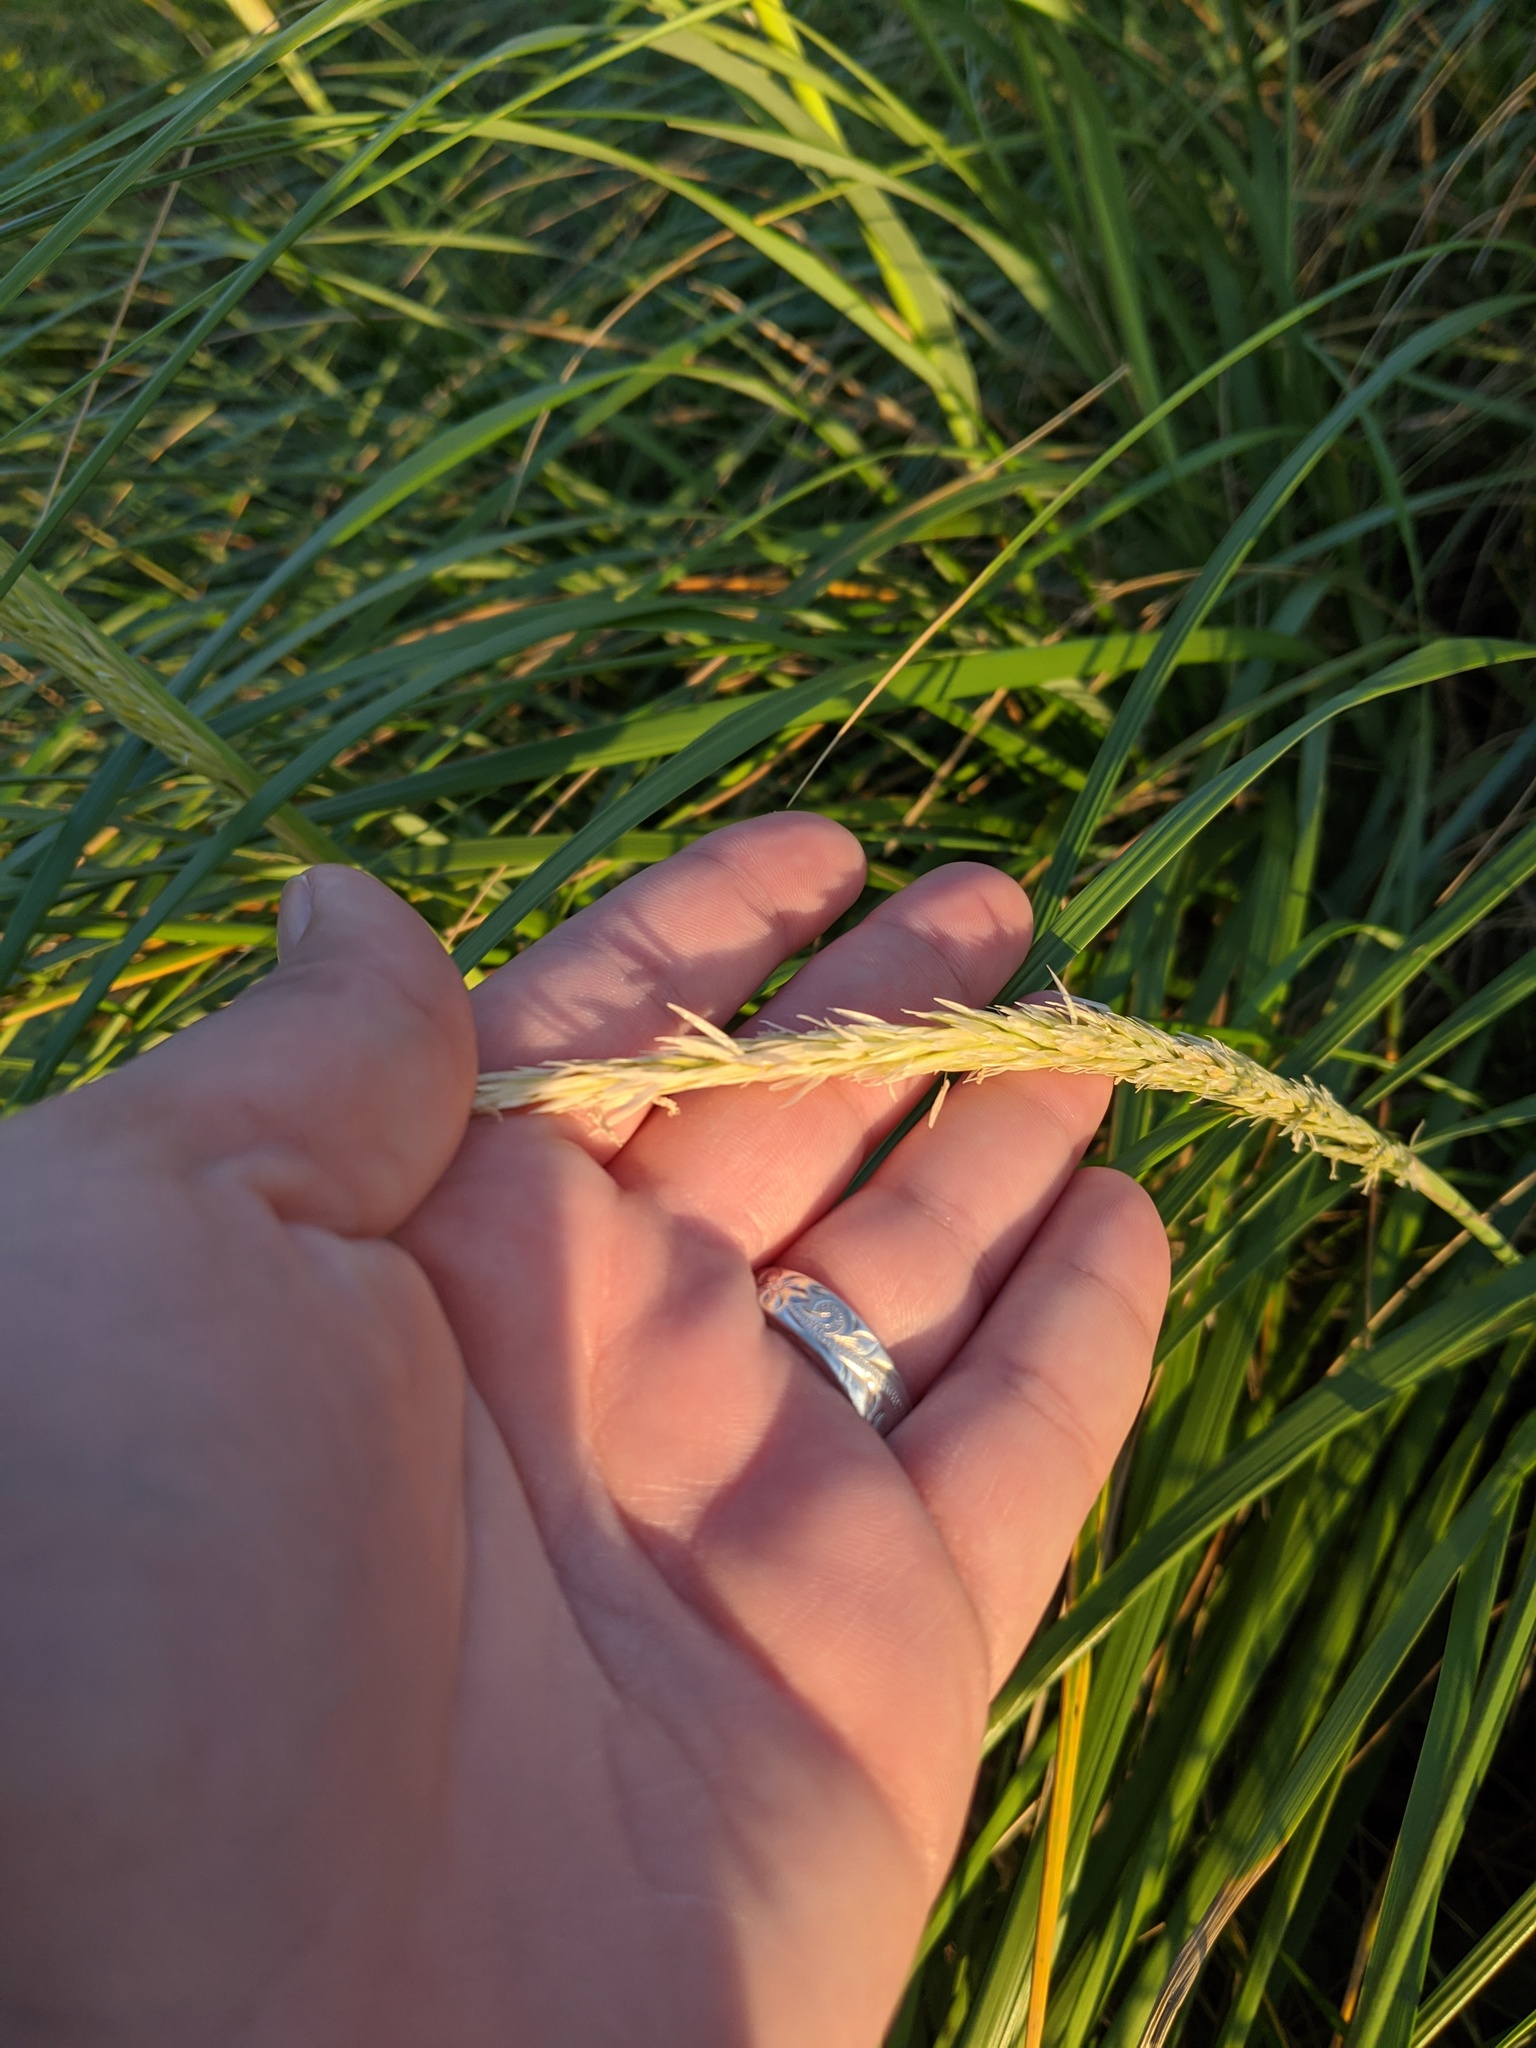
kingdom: Plantae
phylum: Tracheophyta
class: Liliopsida
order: Poales
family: Poaceae
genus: Calamagrostis
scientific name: Calamagrostis breviligulata
